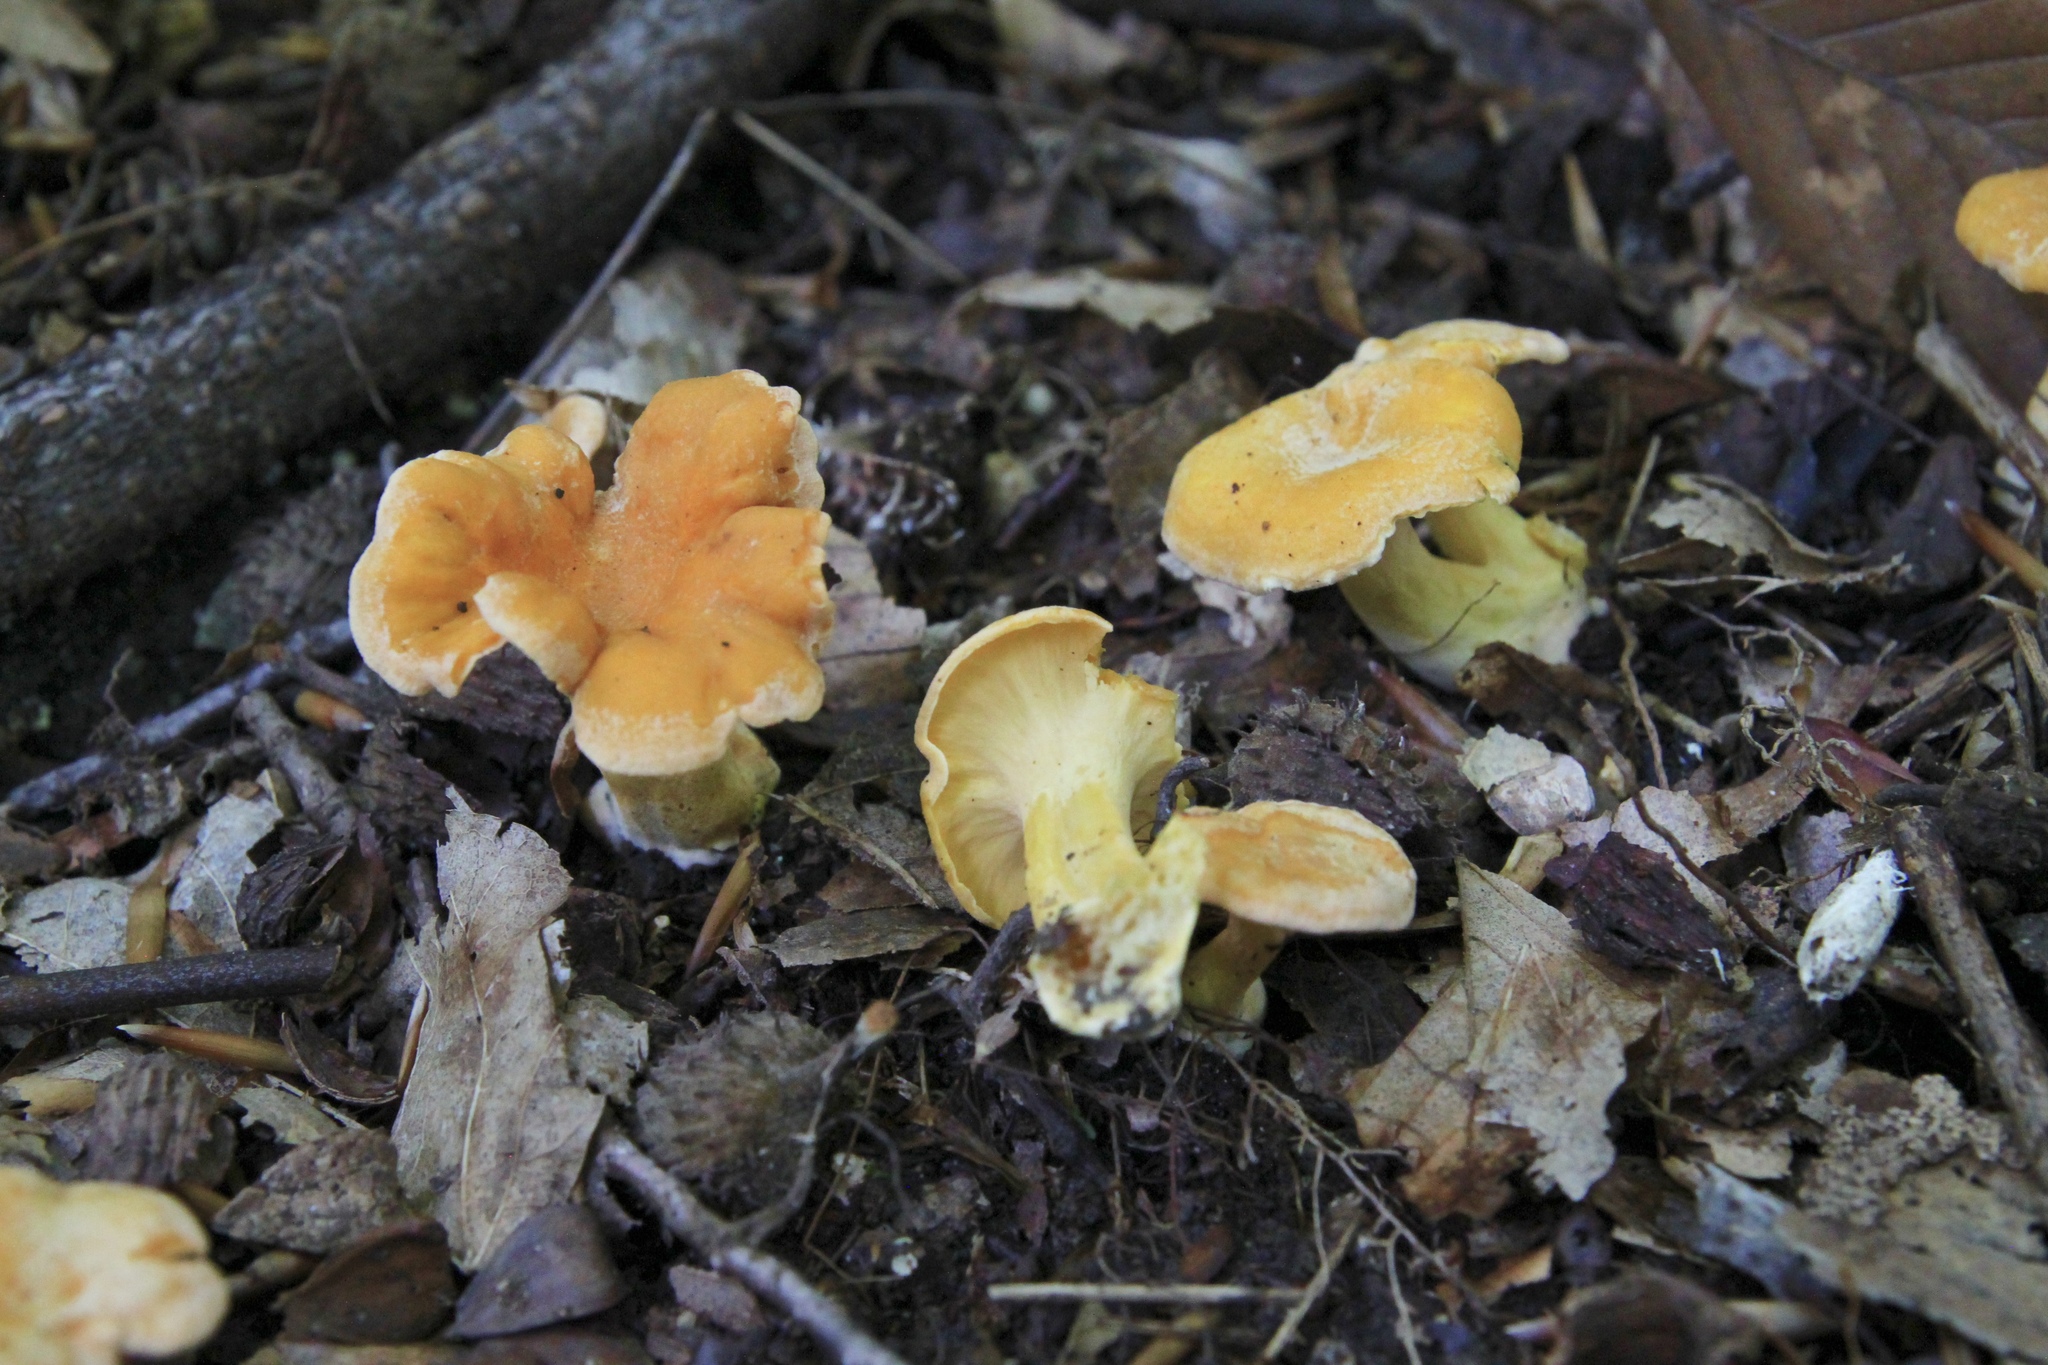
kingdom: Fungi
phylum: Basidiomycota
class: Agaricomycetes
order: Cantharellales
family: Hydnaceae
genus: Cantharellus
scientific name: Cantharellus lateritius
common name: Smooth chanterelle
